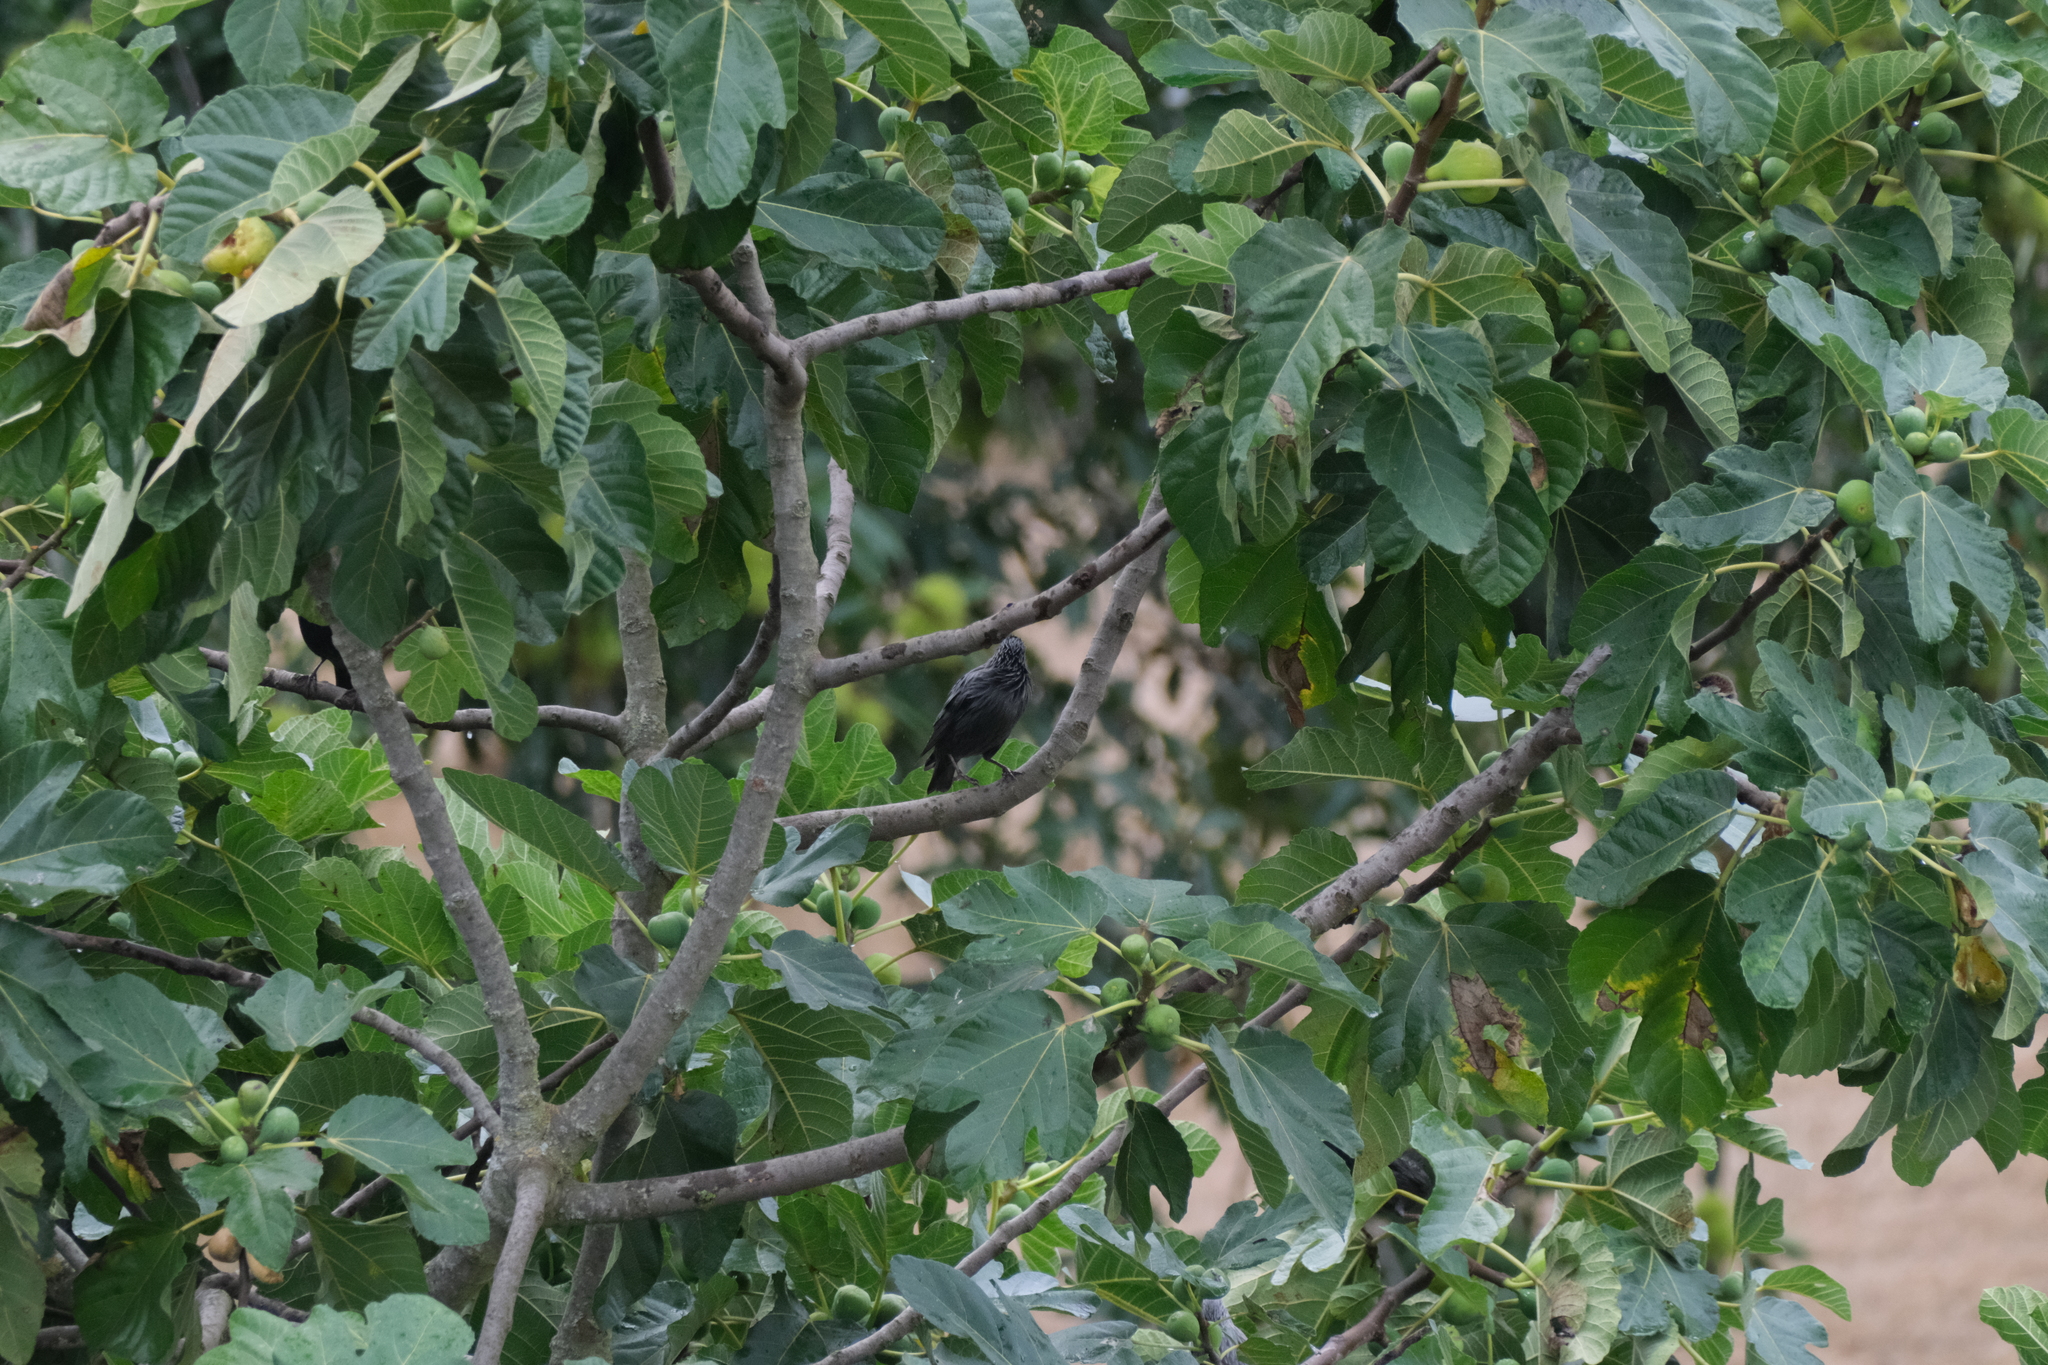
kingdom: Animalia
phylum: Chordata
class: Aves
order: Passeriformes
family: Sturnidae
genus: Sturnus
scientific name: Sturnus unicolor
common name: Spotless starling
